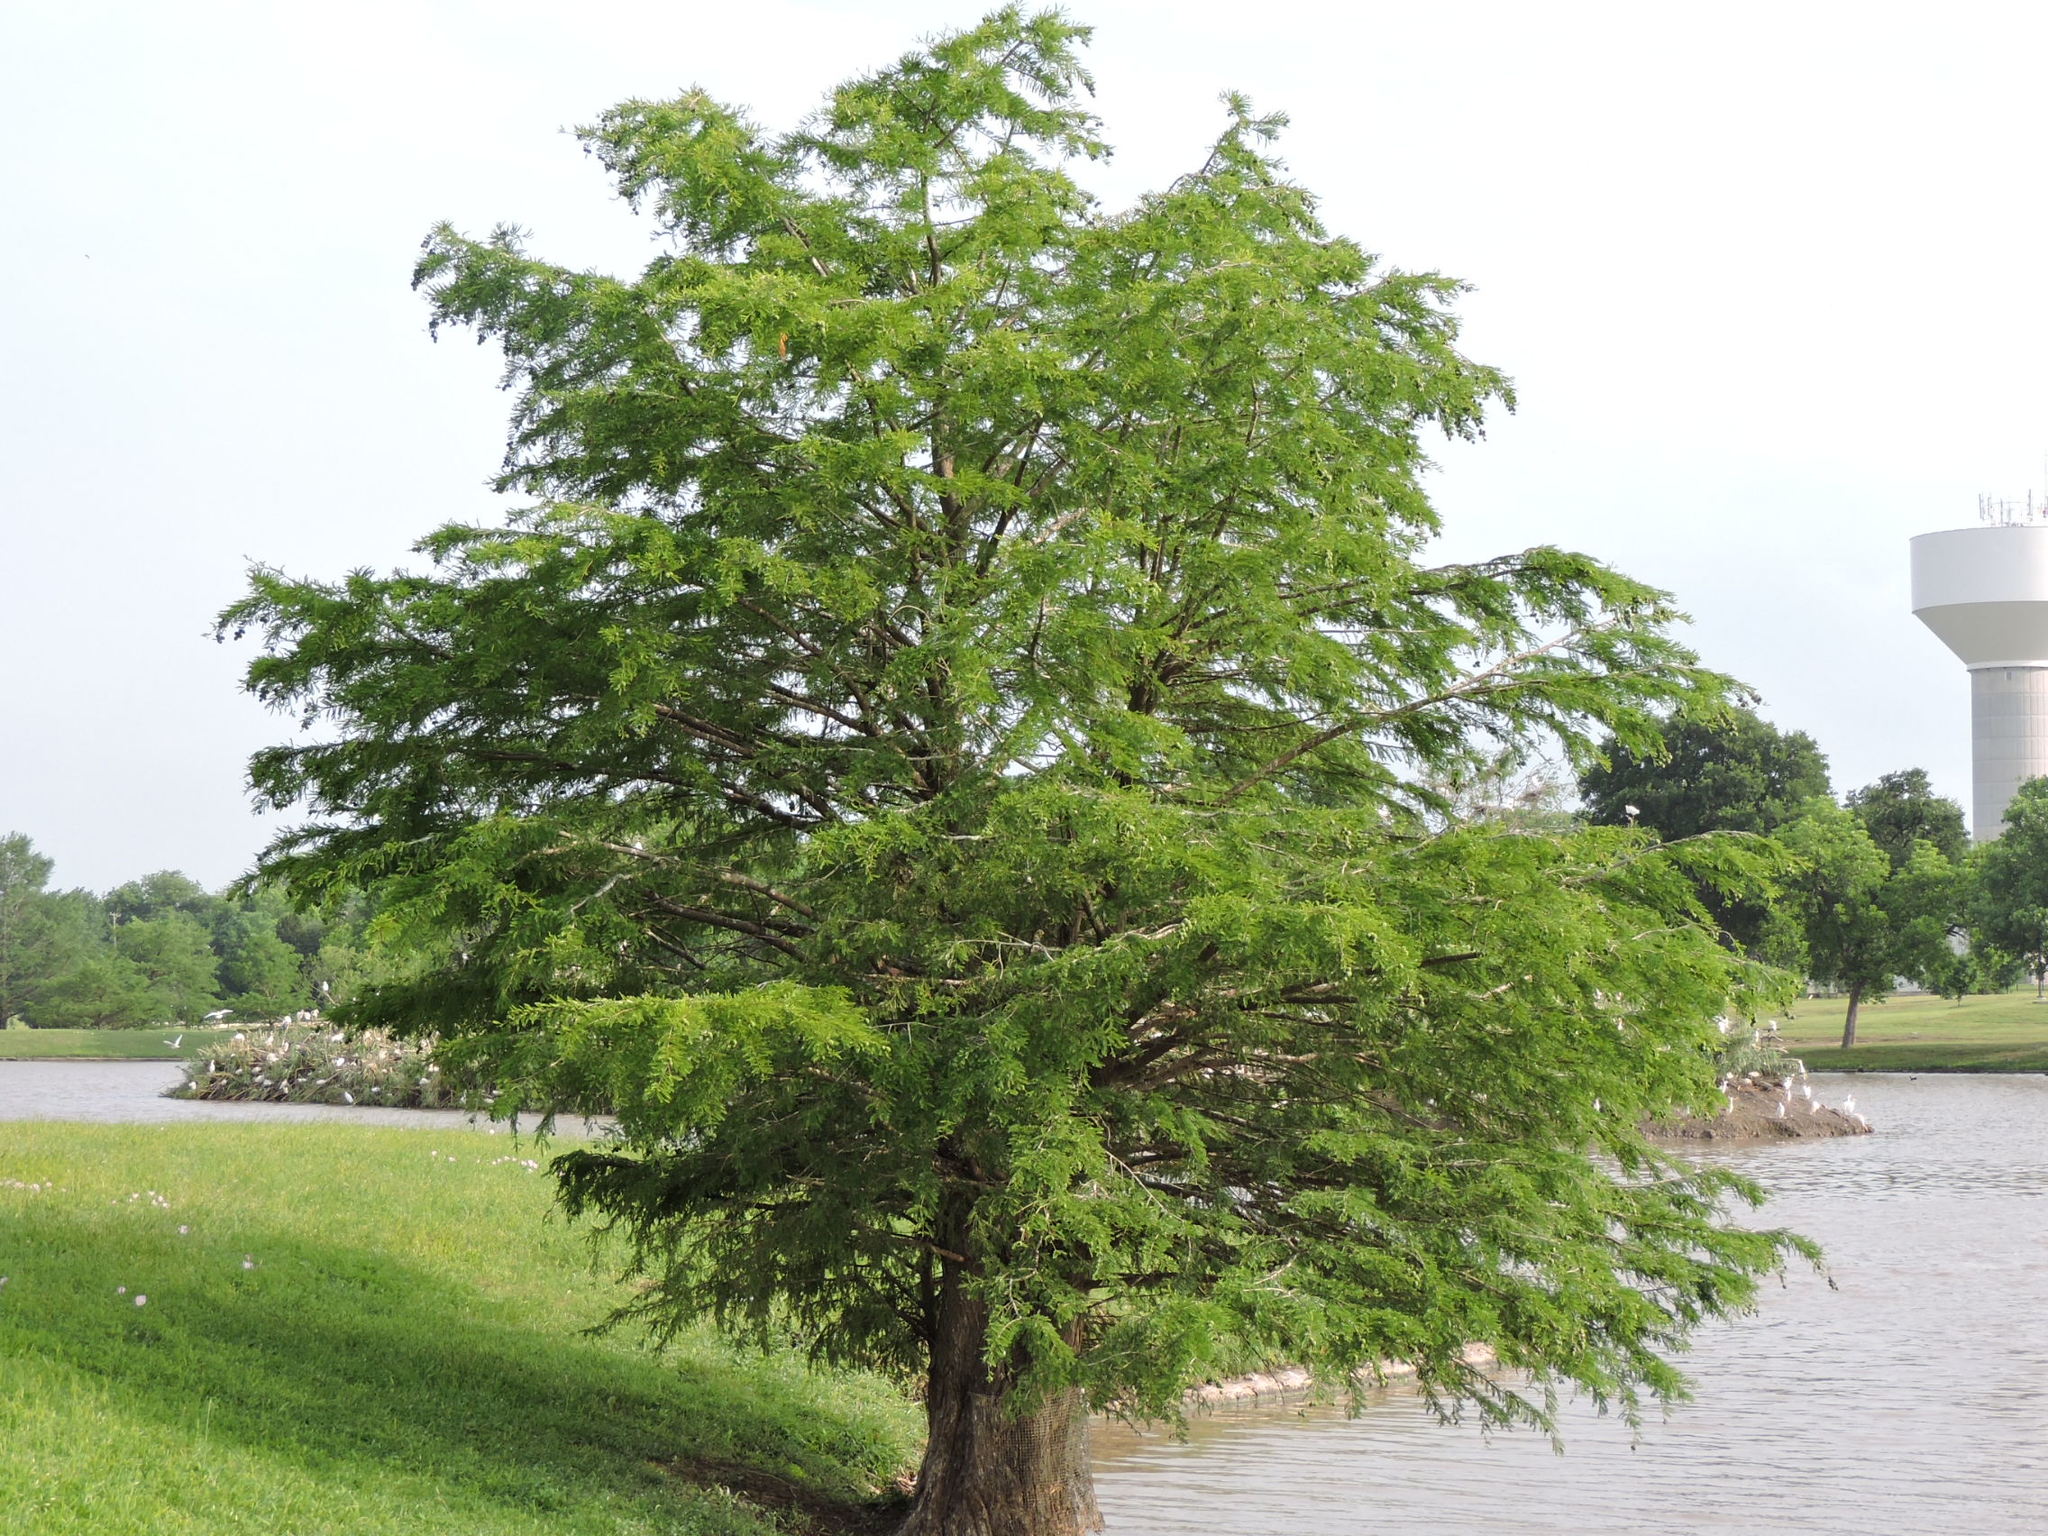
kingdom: Plantae
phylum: Tracheophyta
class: Pinopsida
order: Pinales
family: Cupressaceae
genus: Taxodium
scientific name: Taxodium distichum
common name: Bald cypress
